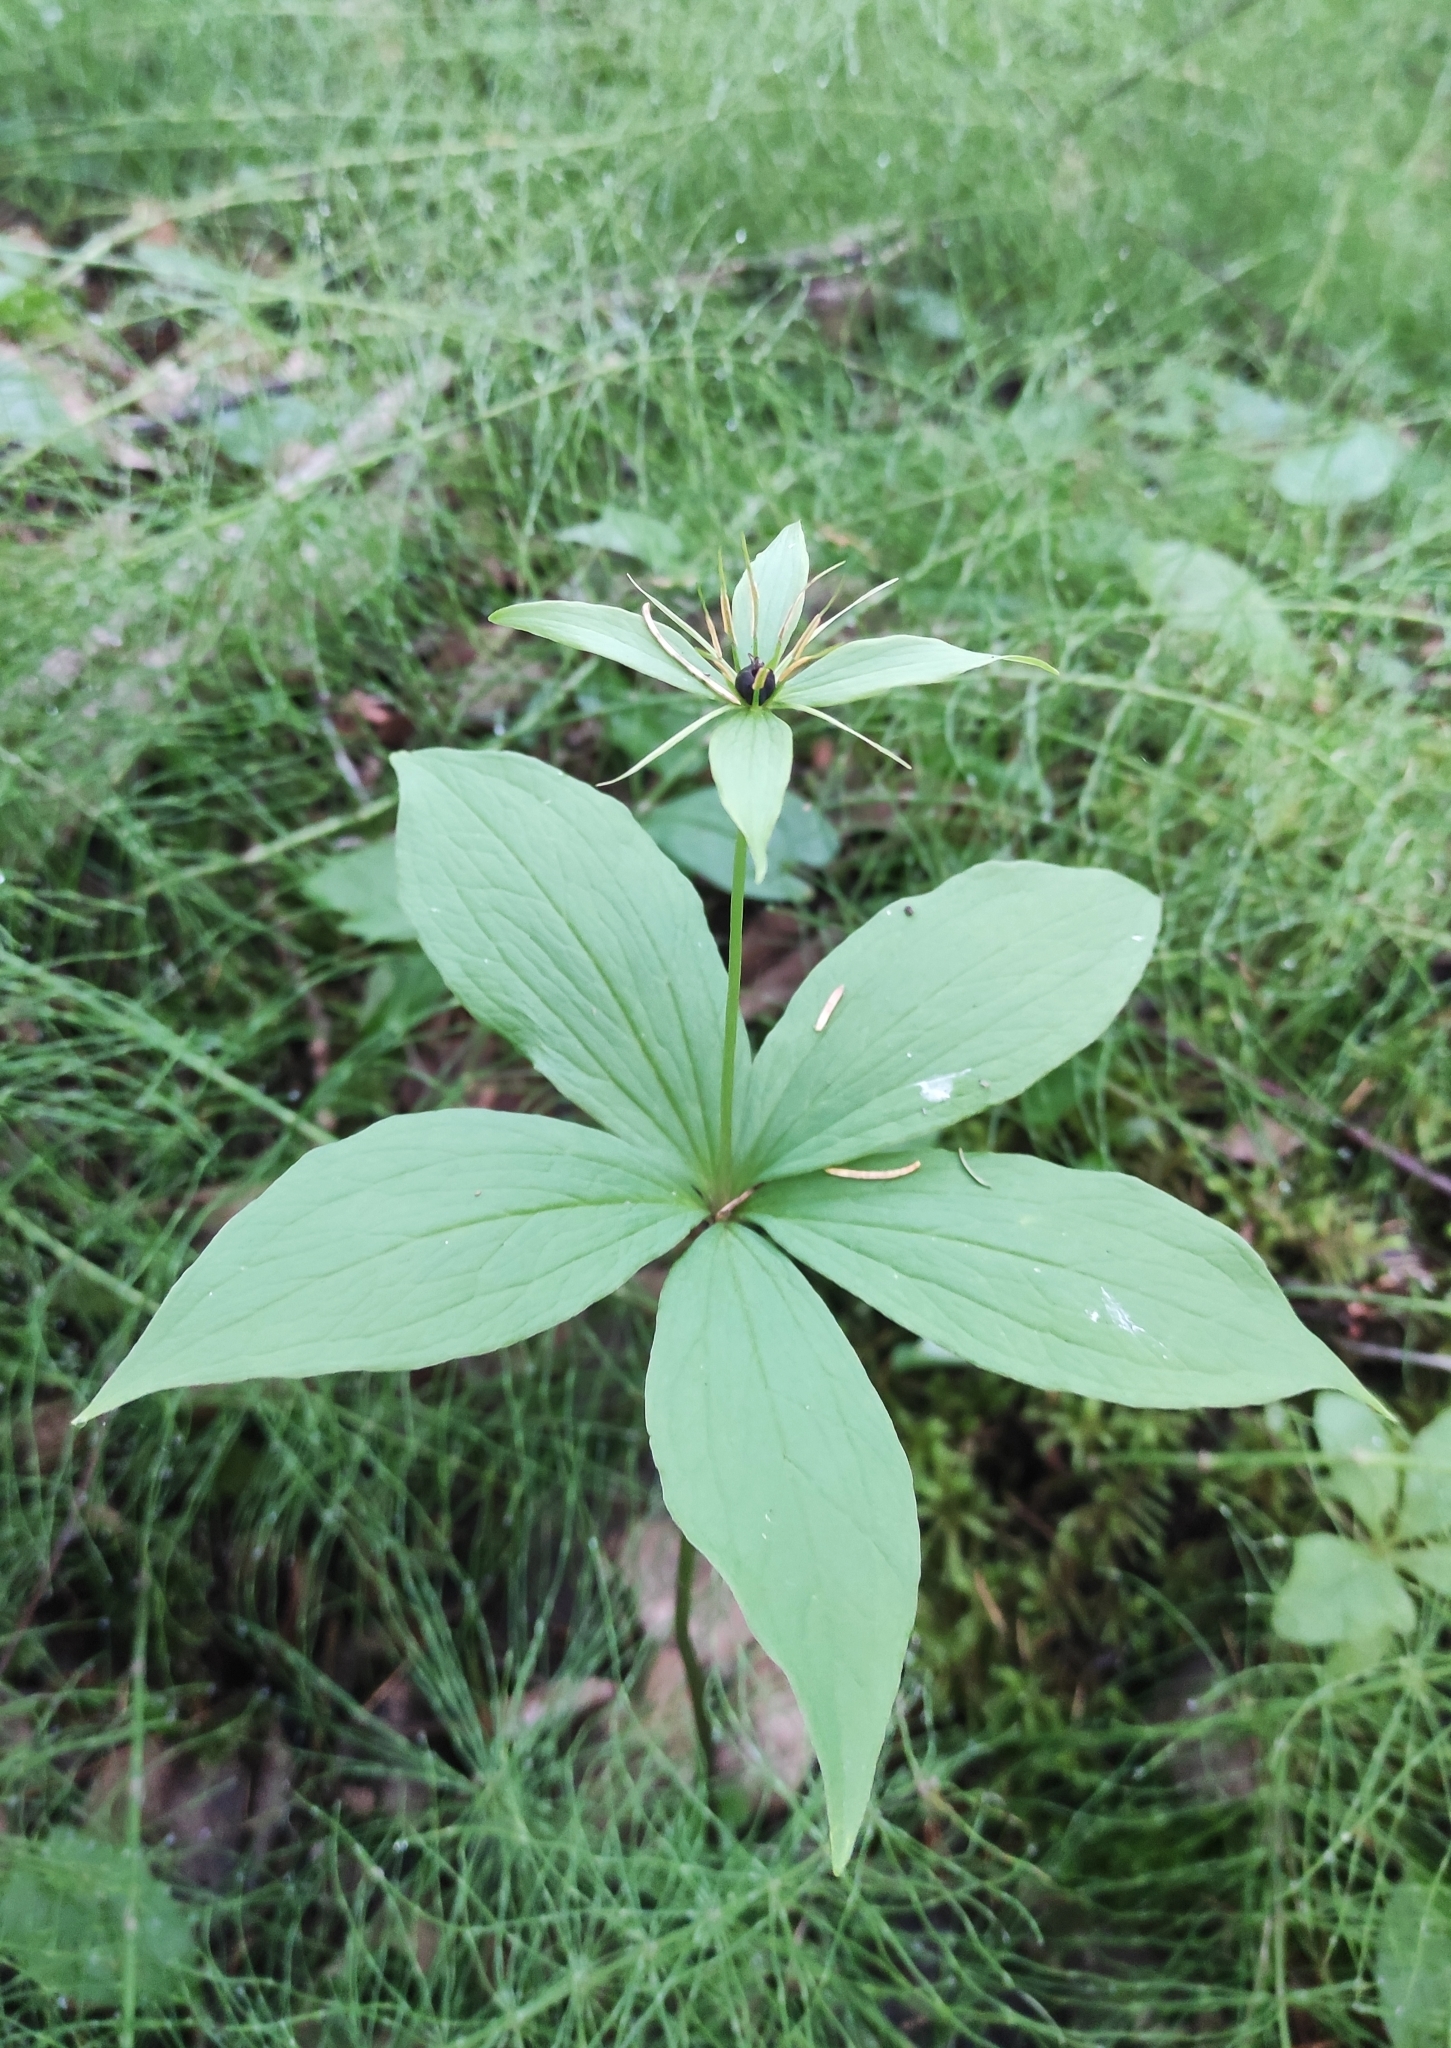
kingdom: Plantae
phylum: Tracheophyta
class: Liliopsida
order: Liliales
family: Melanthiaceae
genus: Paris
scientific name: Paris verticillata
